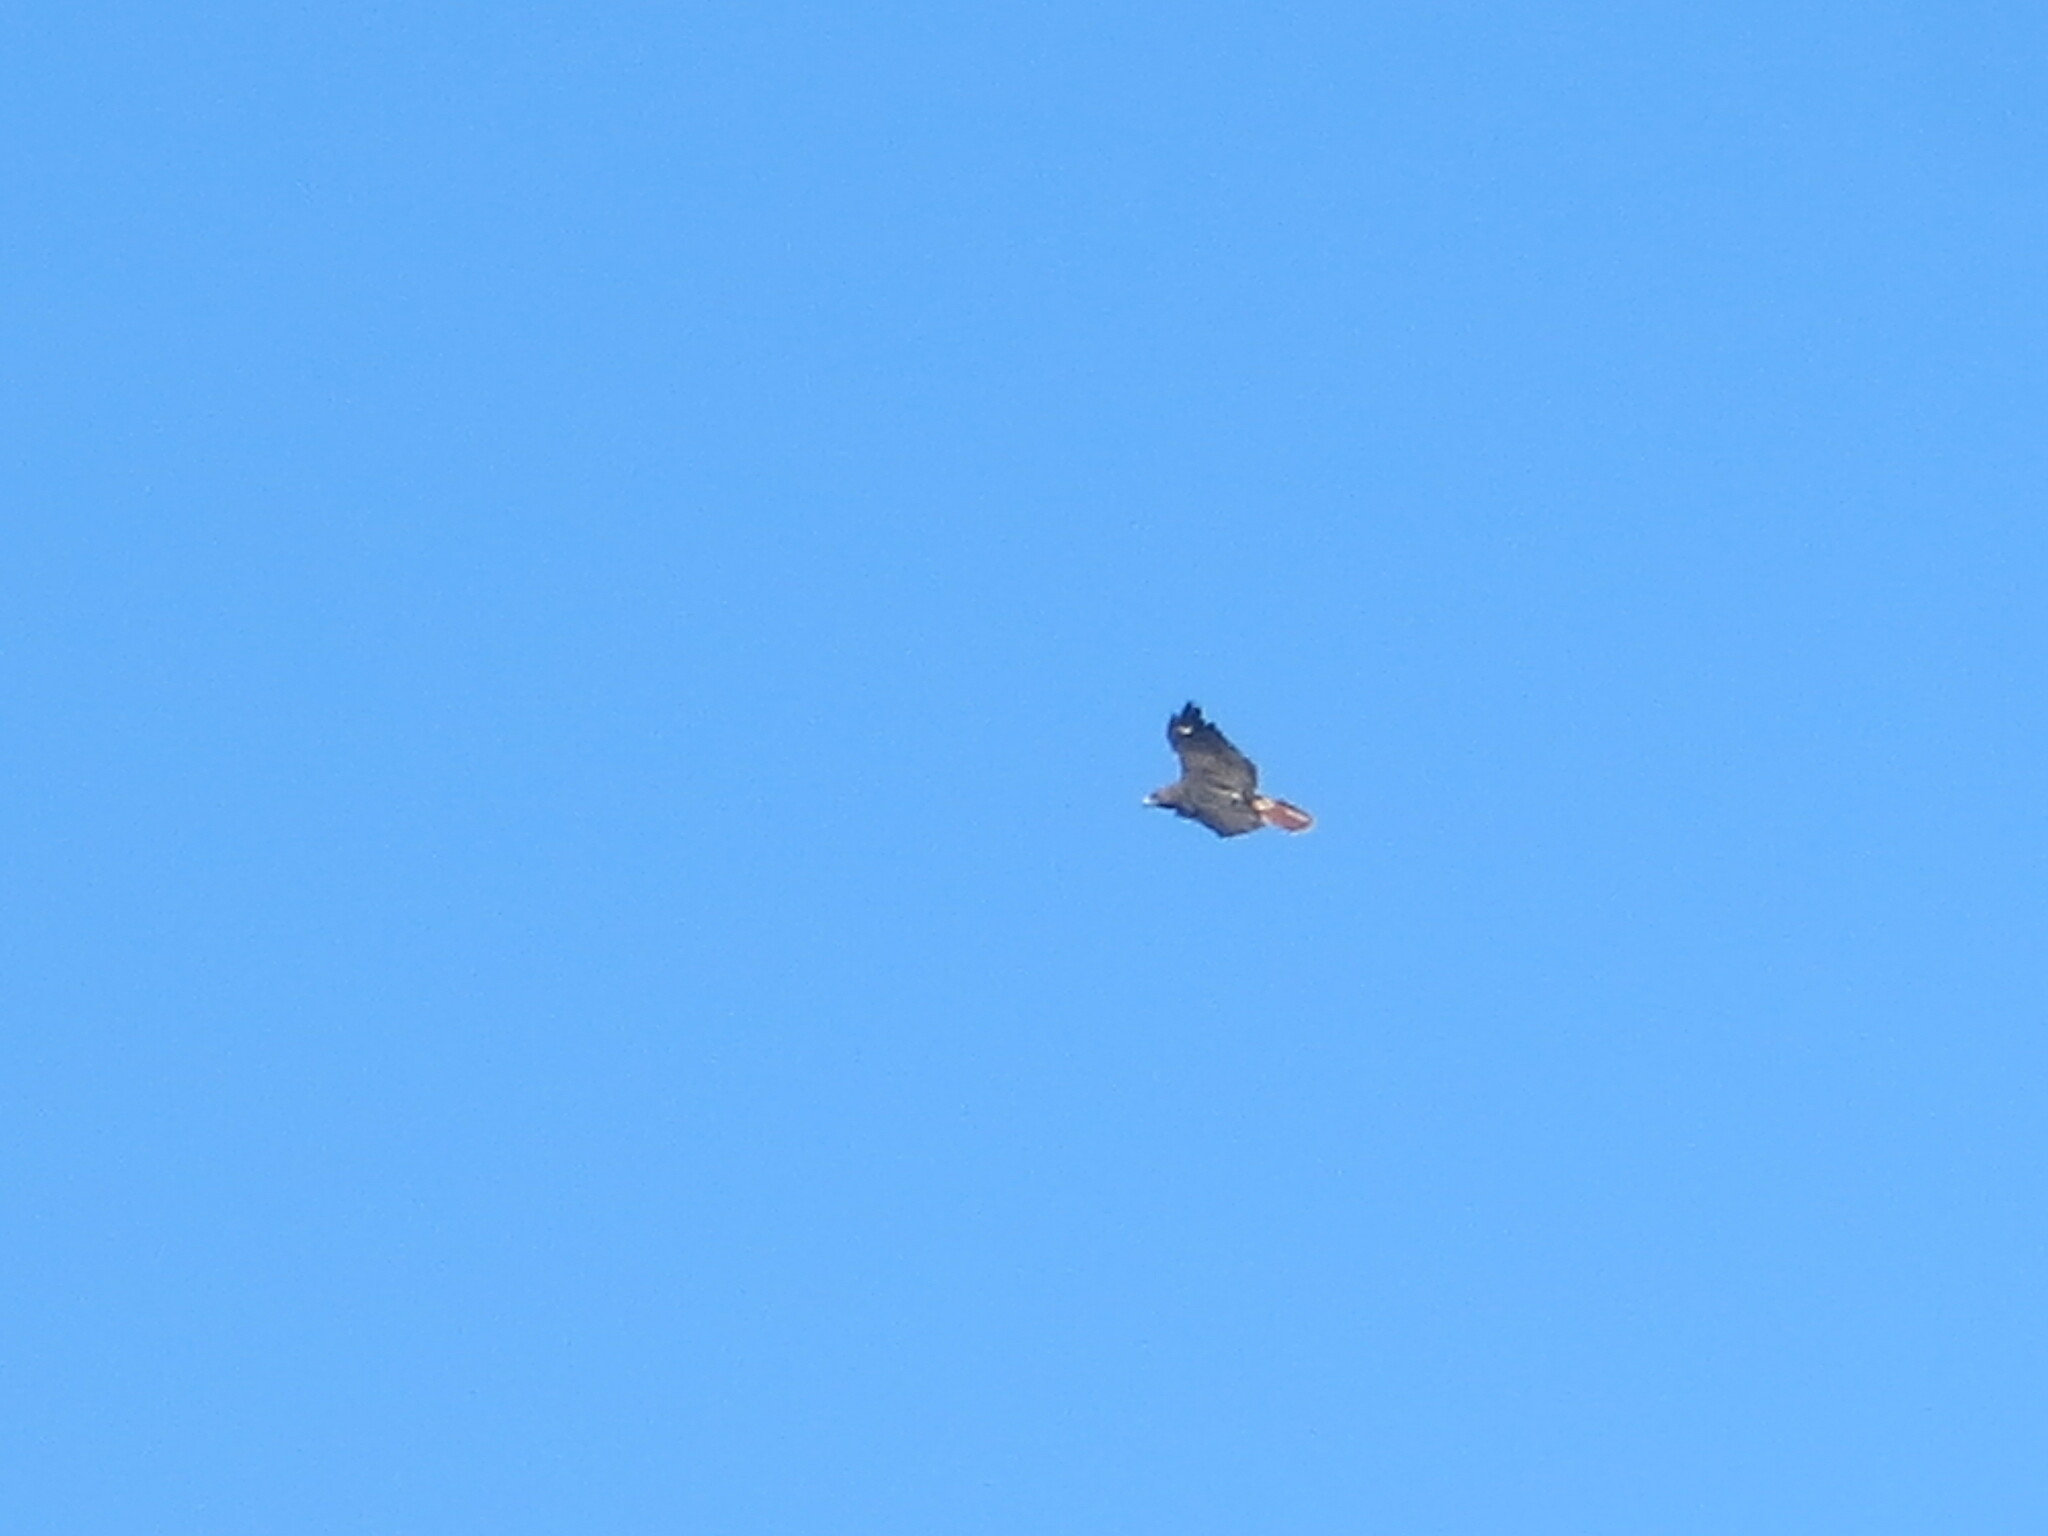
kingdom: Animalia
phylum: Chordata
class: Aves
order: Accipitriformes
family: Accipitridae
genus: Buteo
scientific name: Buteo jamaicensis
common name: Red-tailed hawk
